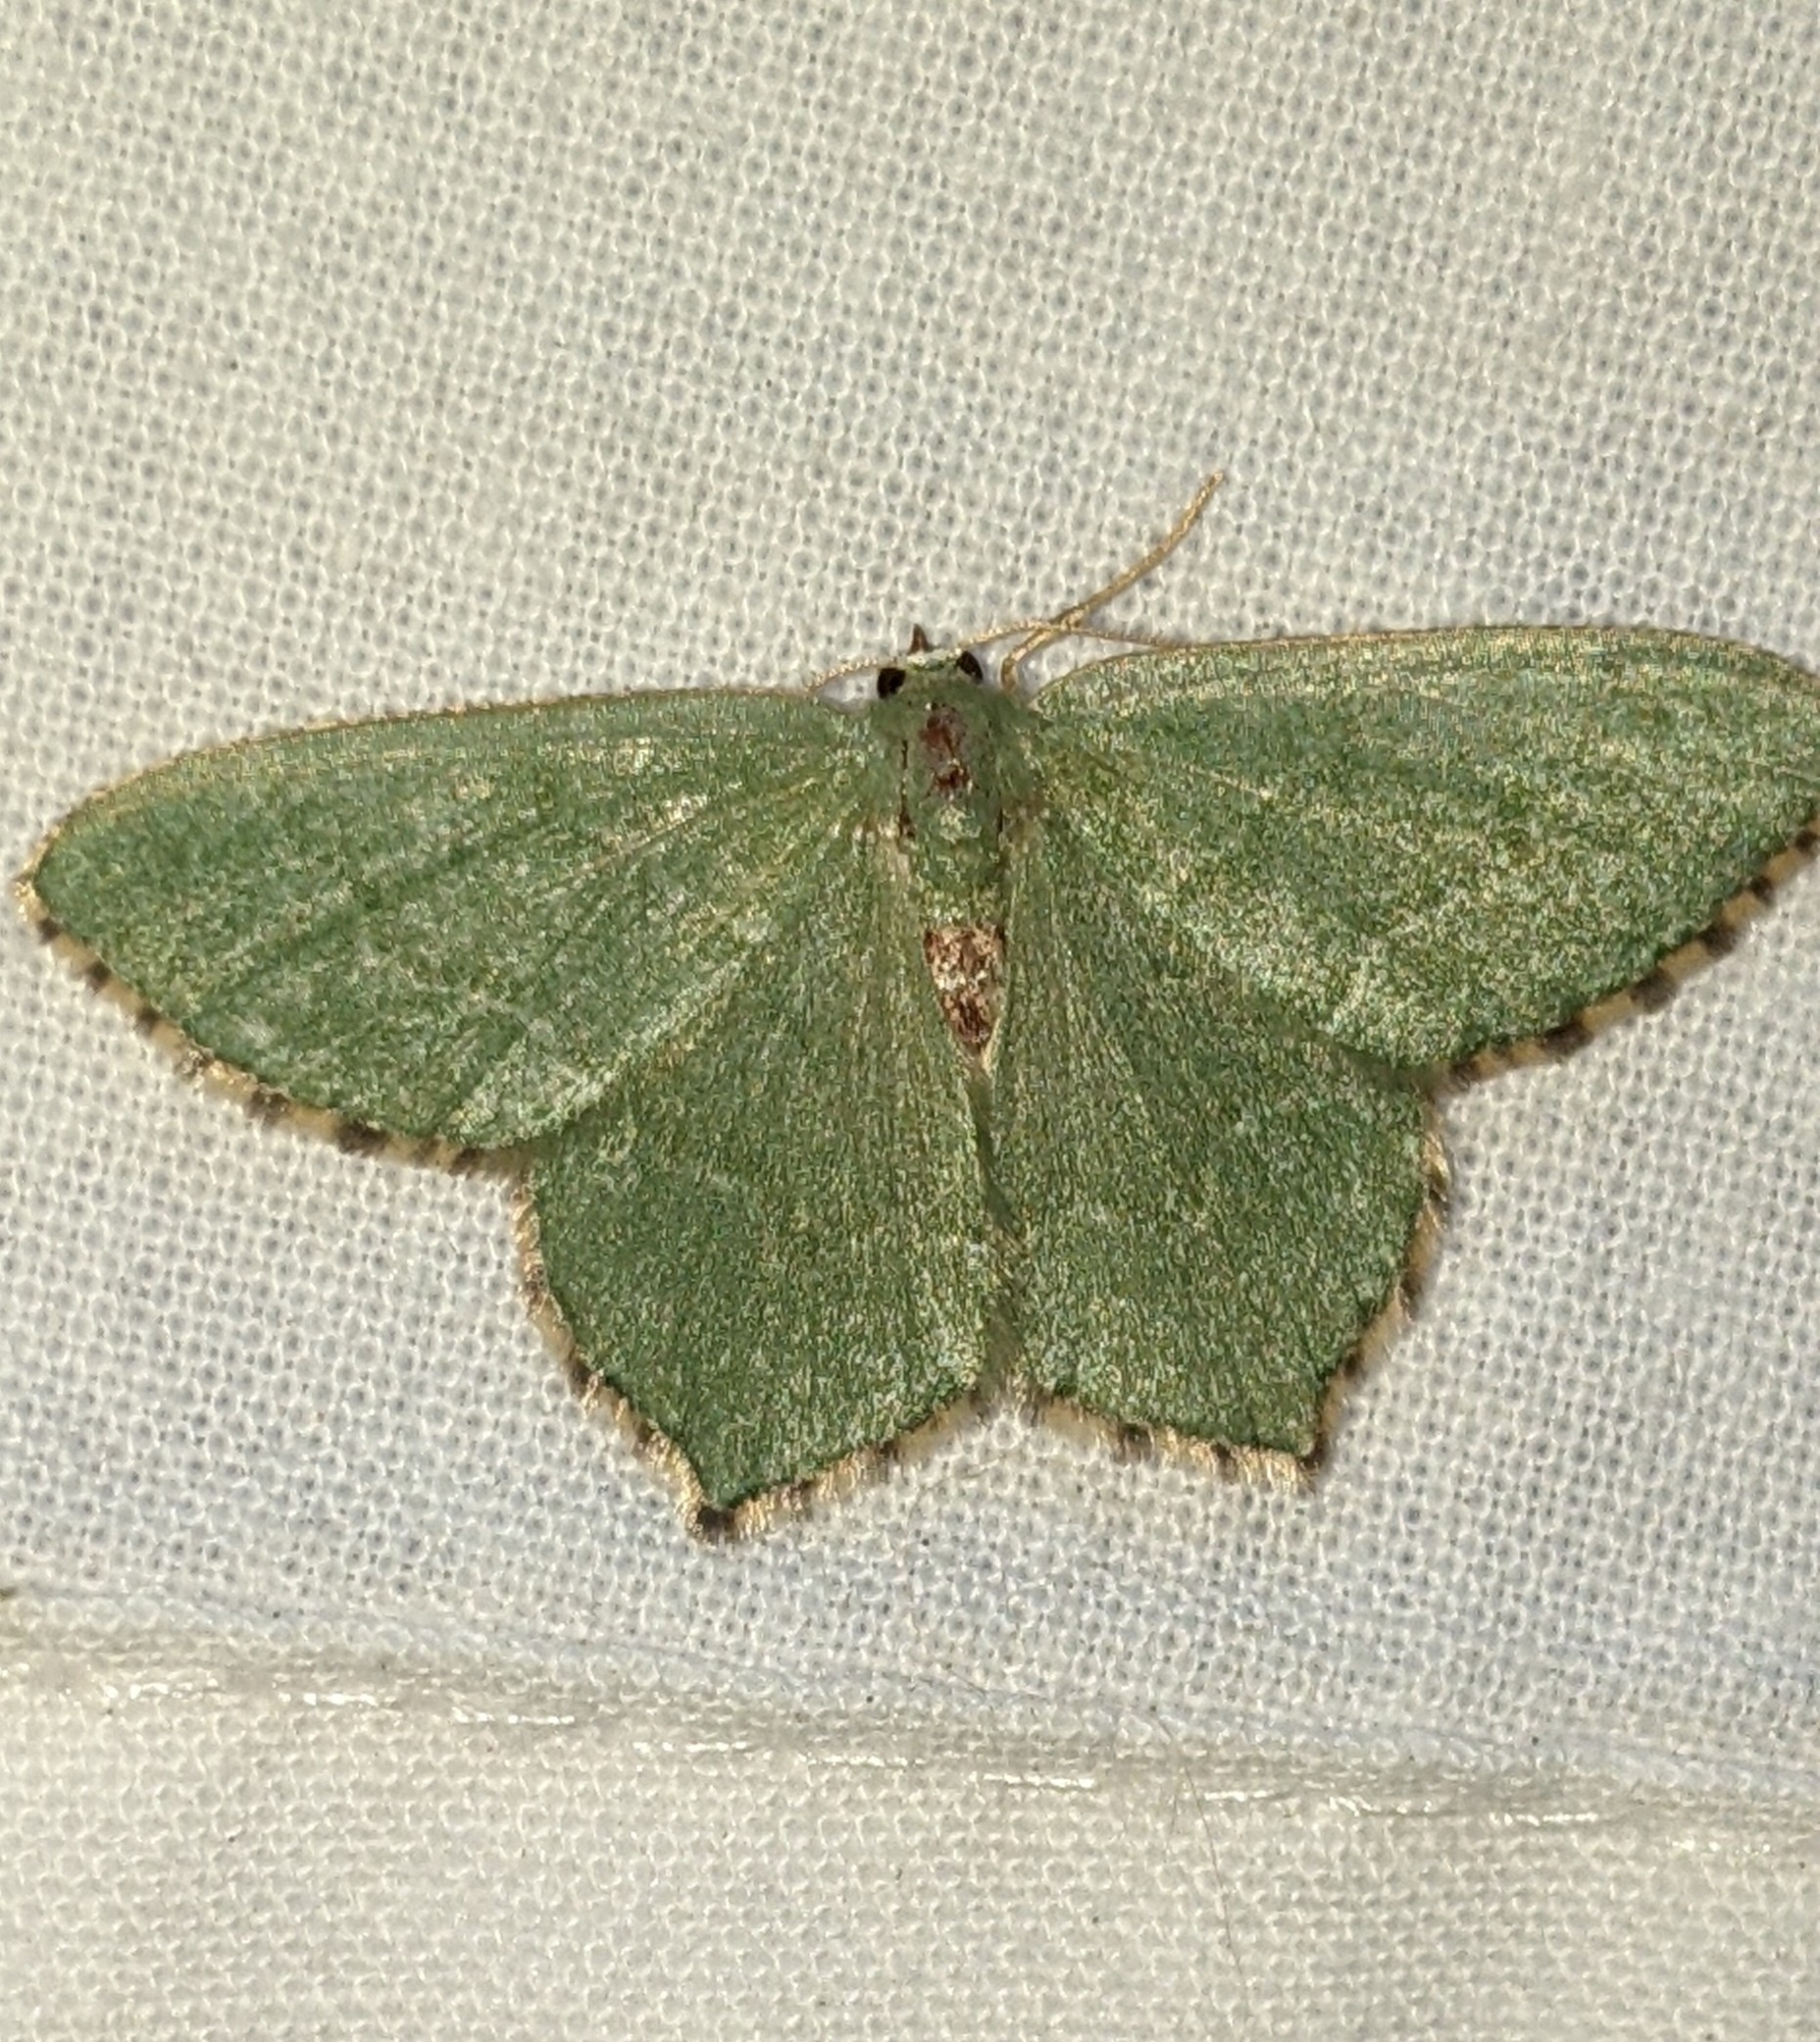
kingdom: Animalia
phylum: Arthropoda
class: Insecta
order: Lepidoptera
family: Geometridae
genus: Hemithea
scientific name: Hemithea aestivaria
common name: Common emerald
